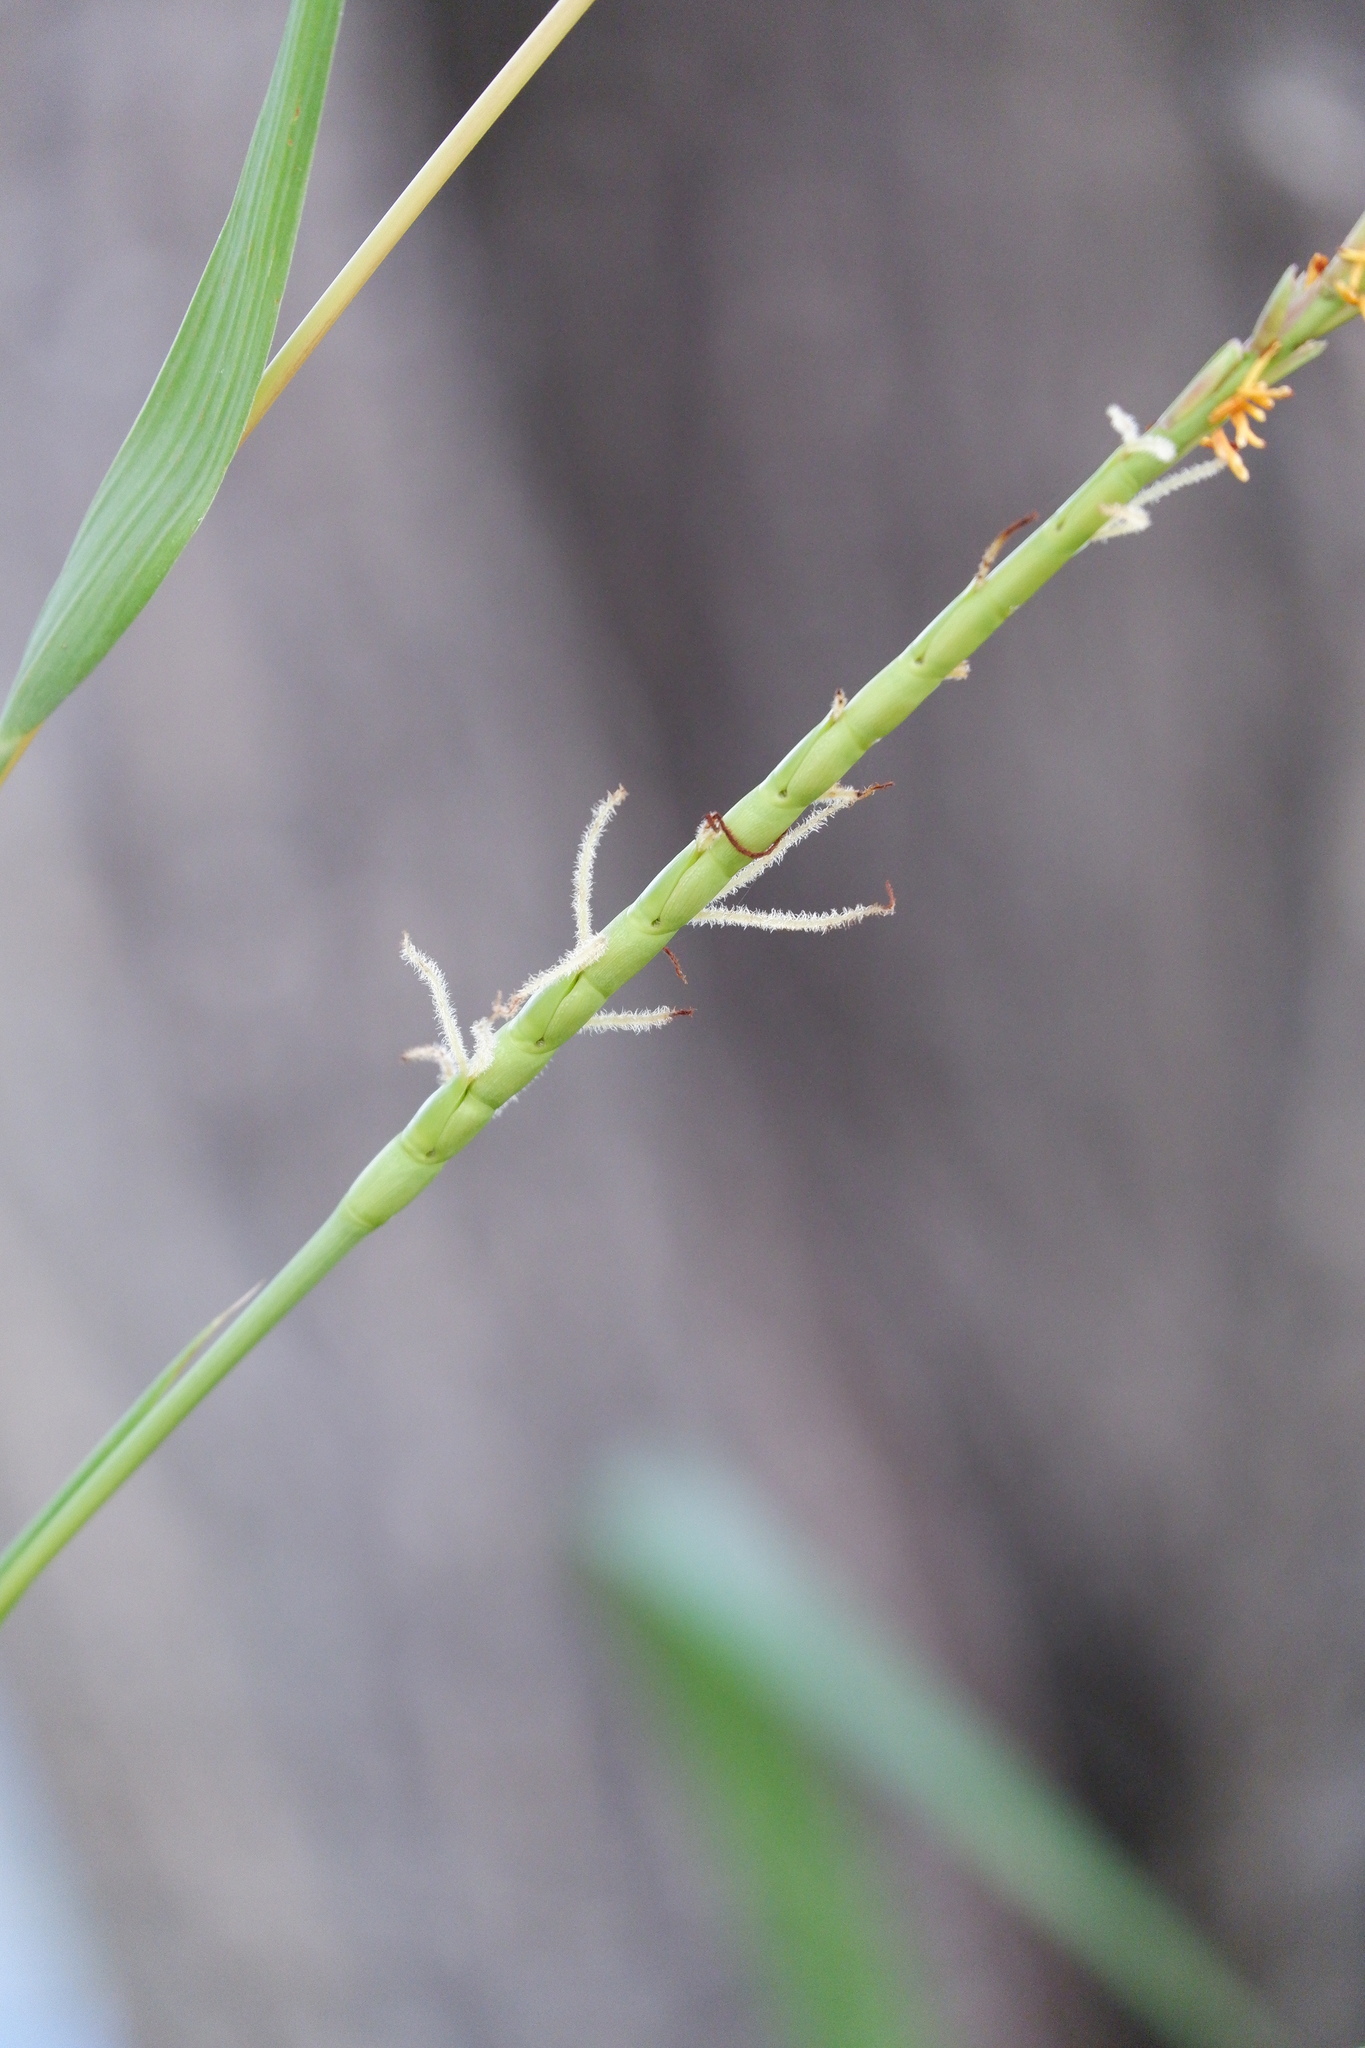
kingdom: Plantae
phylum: Tracheophyta
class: Liliopsida
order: Poales
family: Poaceae
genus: Tripsacum
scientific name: Tripsacum dactyloides
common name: Buffalo-grass
